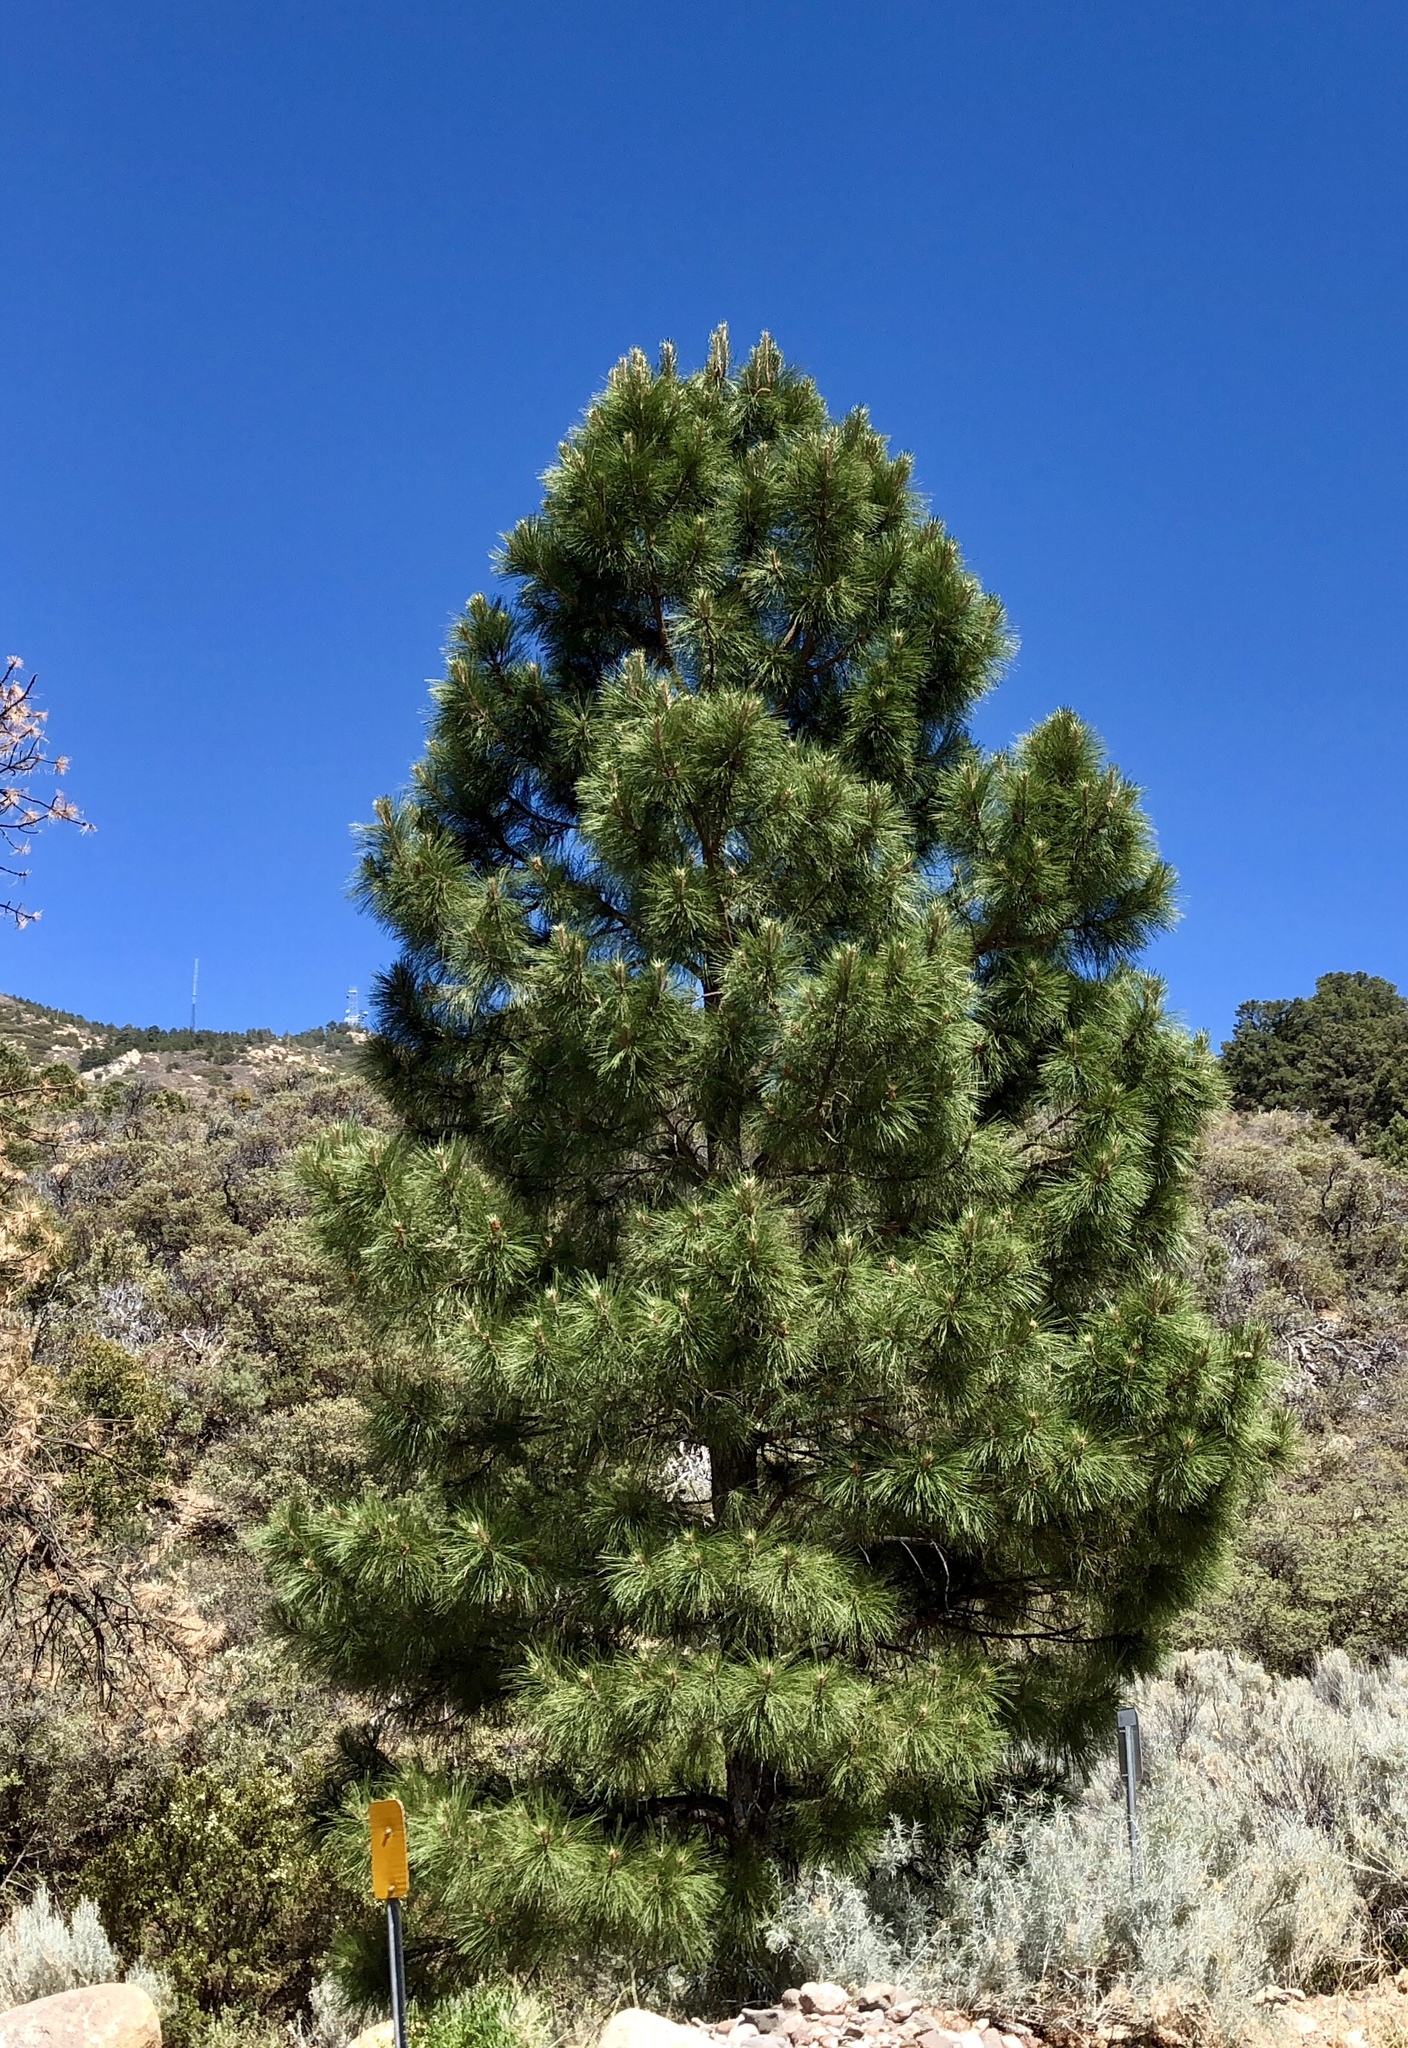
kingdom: Plantae
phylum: Tracheophyta
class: Pinopsida
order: Pinales
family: Pinaceae
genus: Pinus
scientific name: Pinus ponderosa
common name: Western yellow-pine
